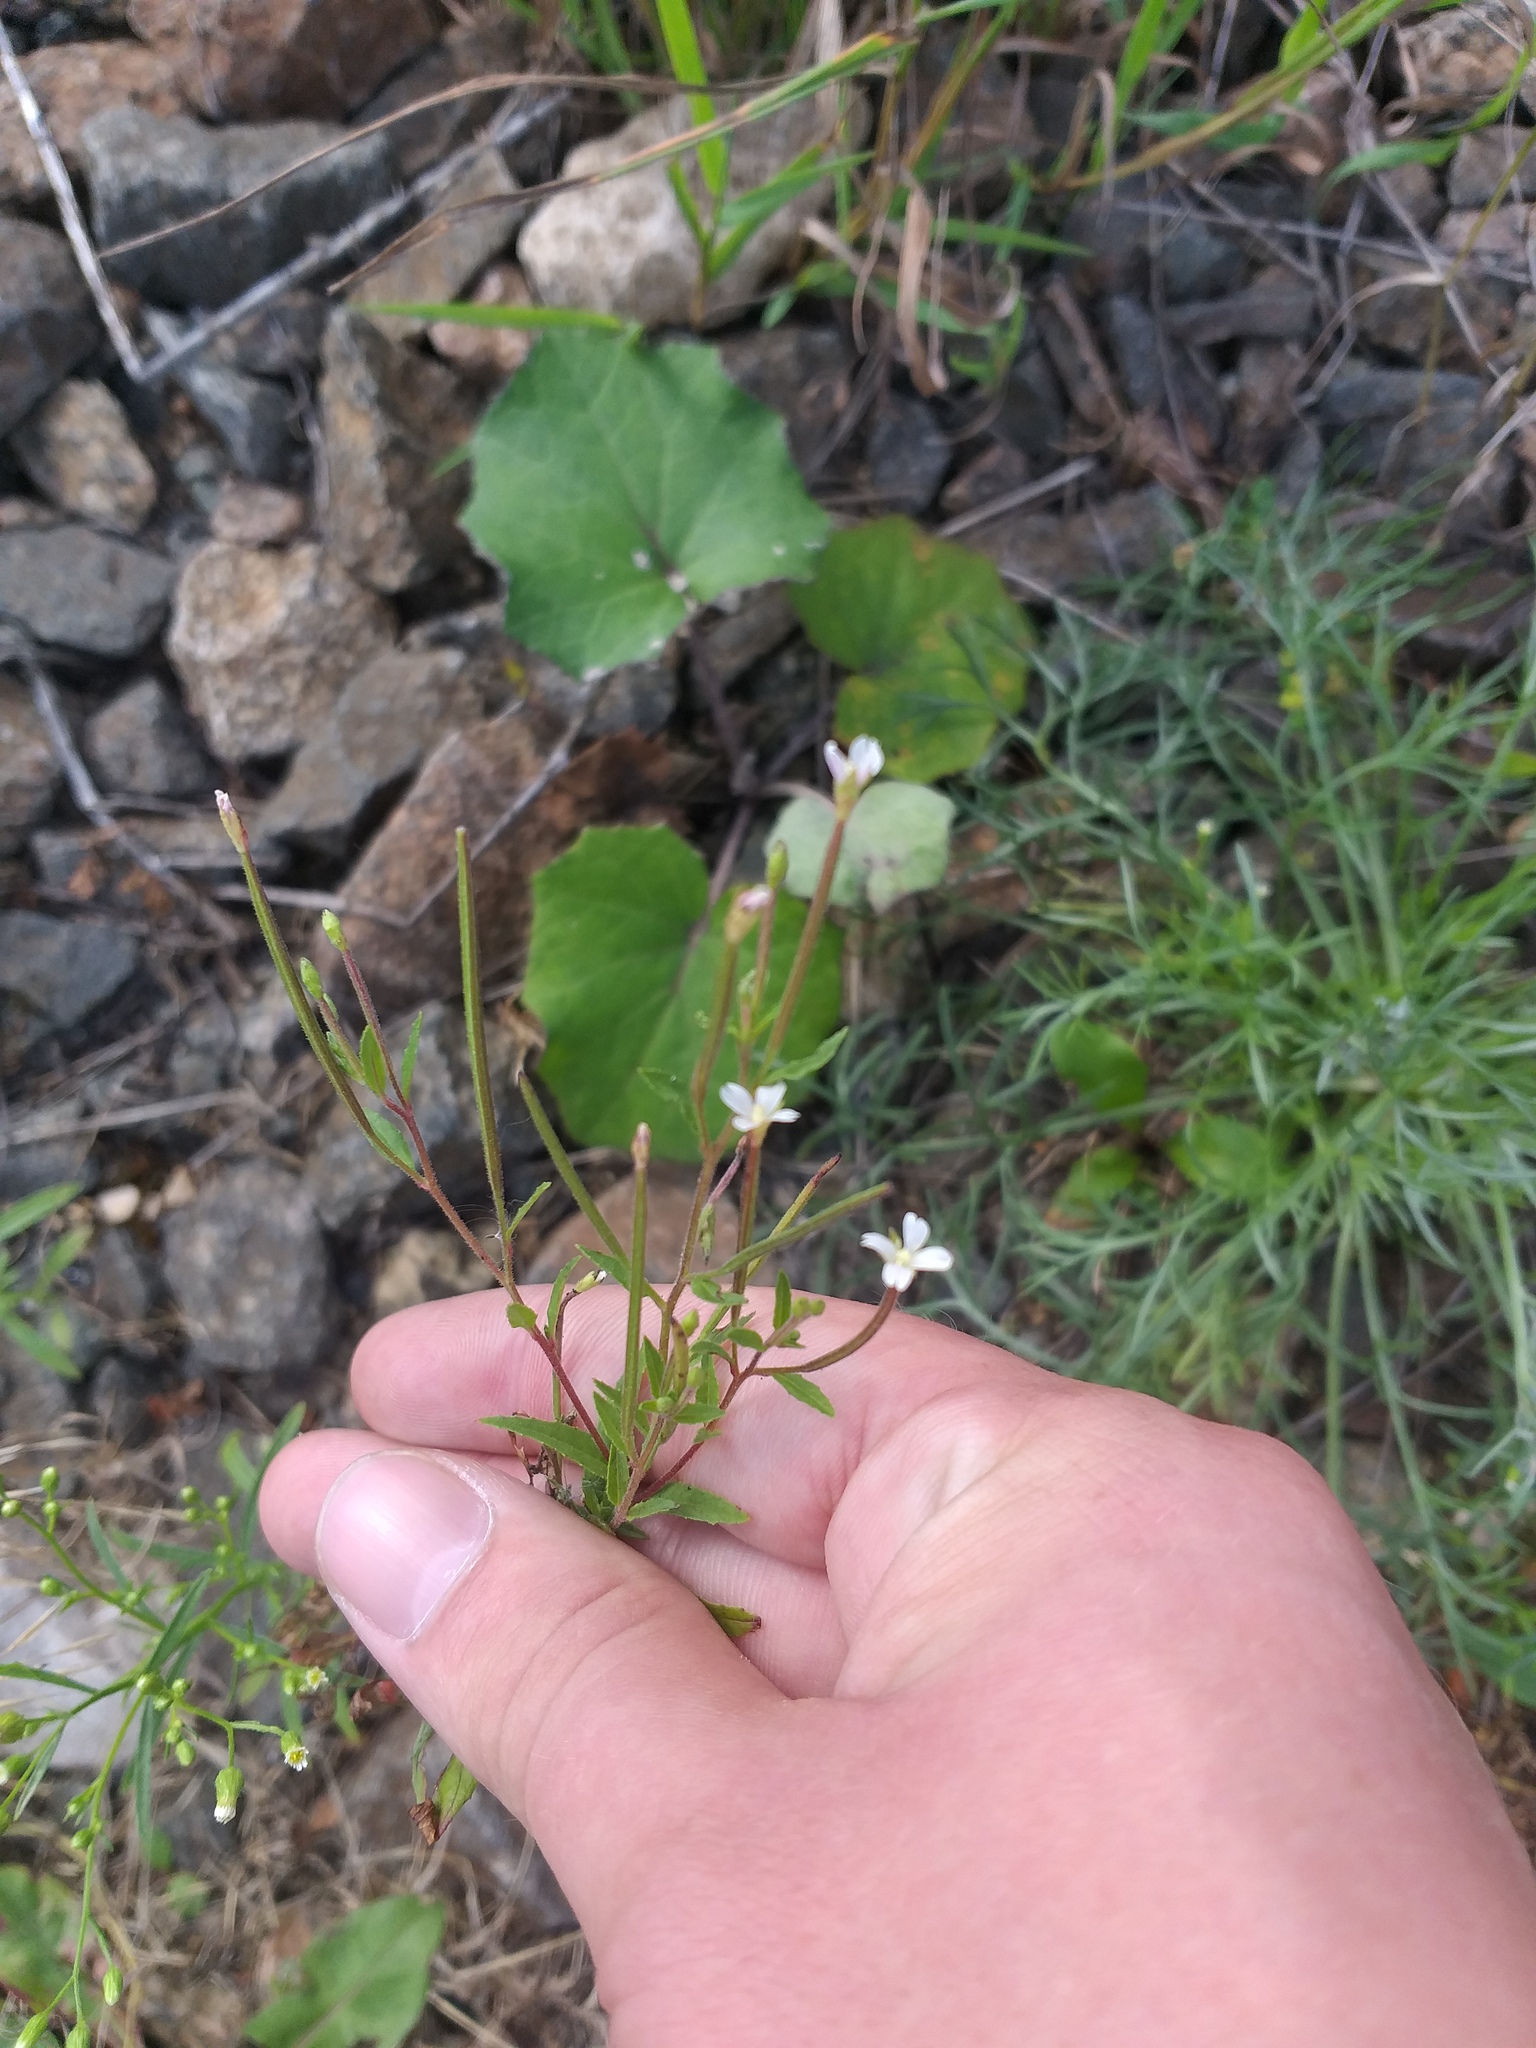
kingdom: Plantae
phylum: Tracheophyta
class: Magnoliopsida
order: Myrtales
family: Onagraceae
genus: Epilobium
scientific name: Epilobium pseudorubescens
